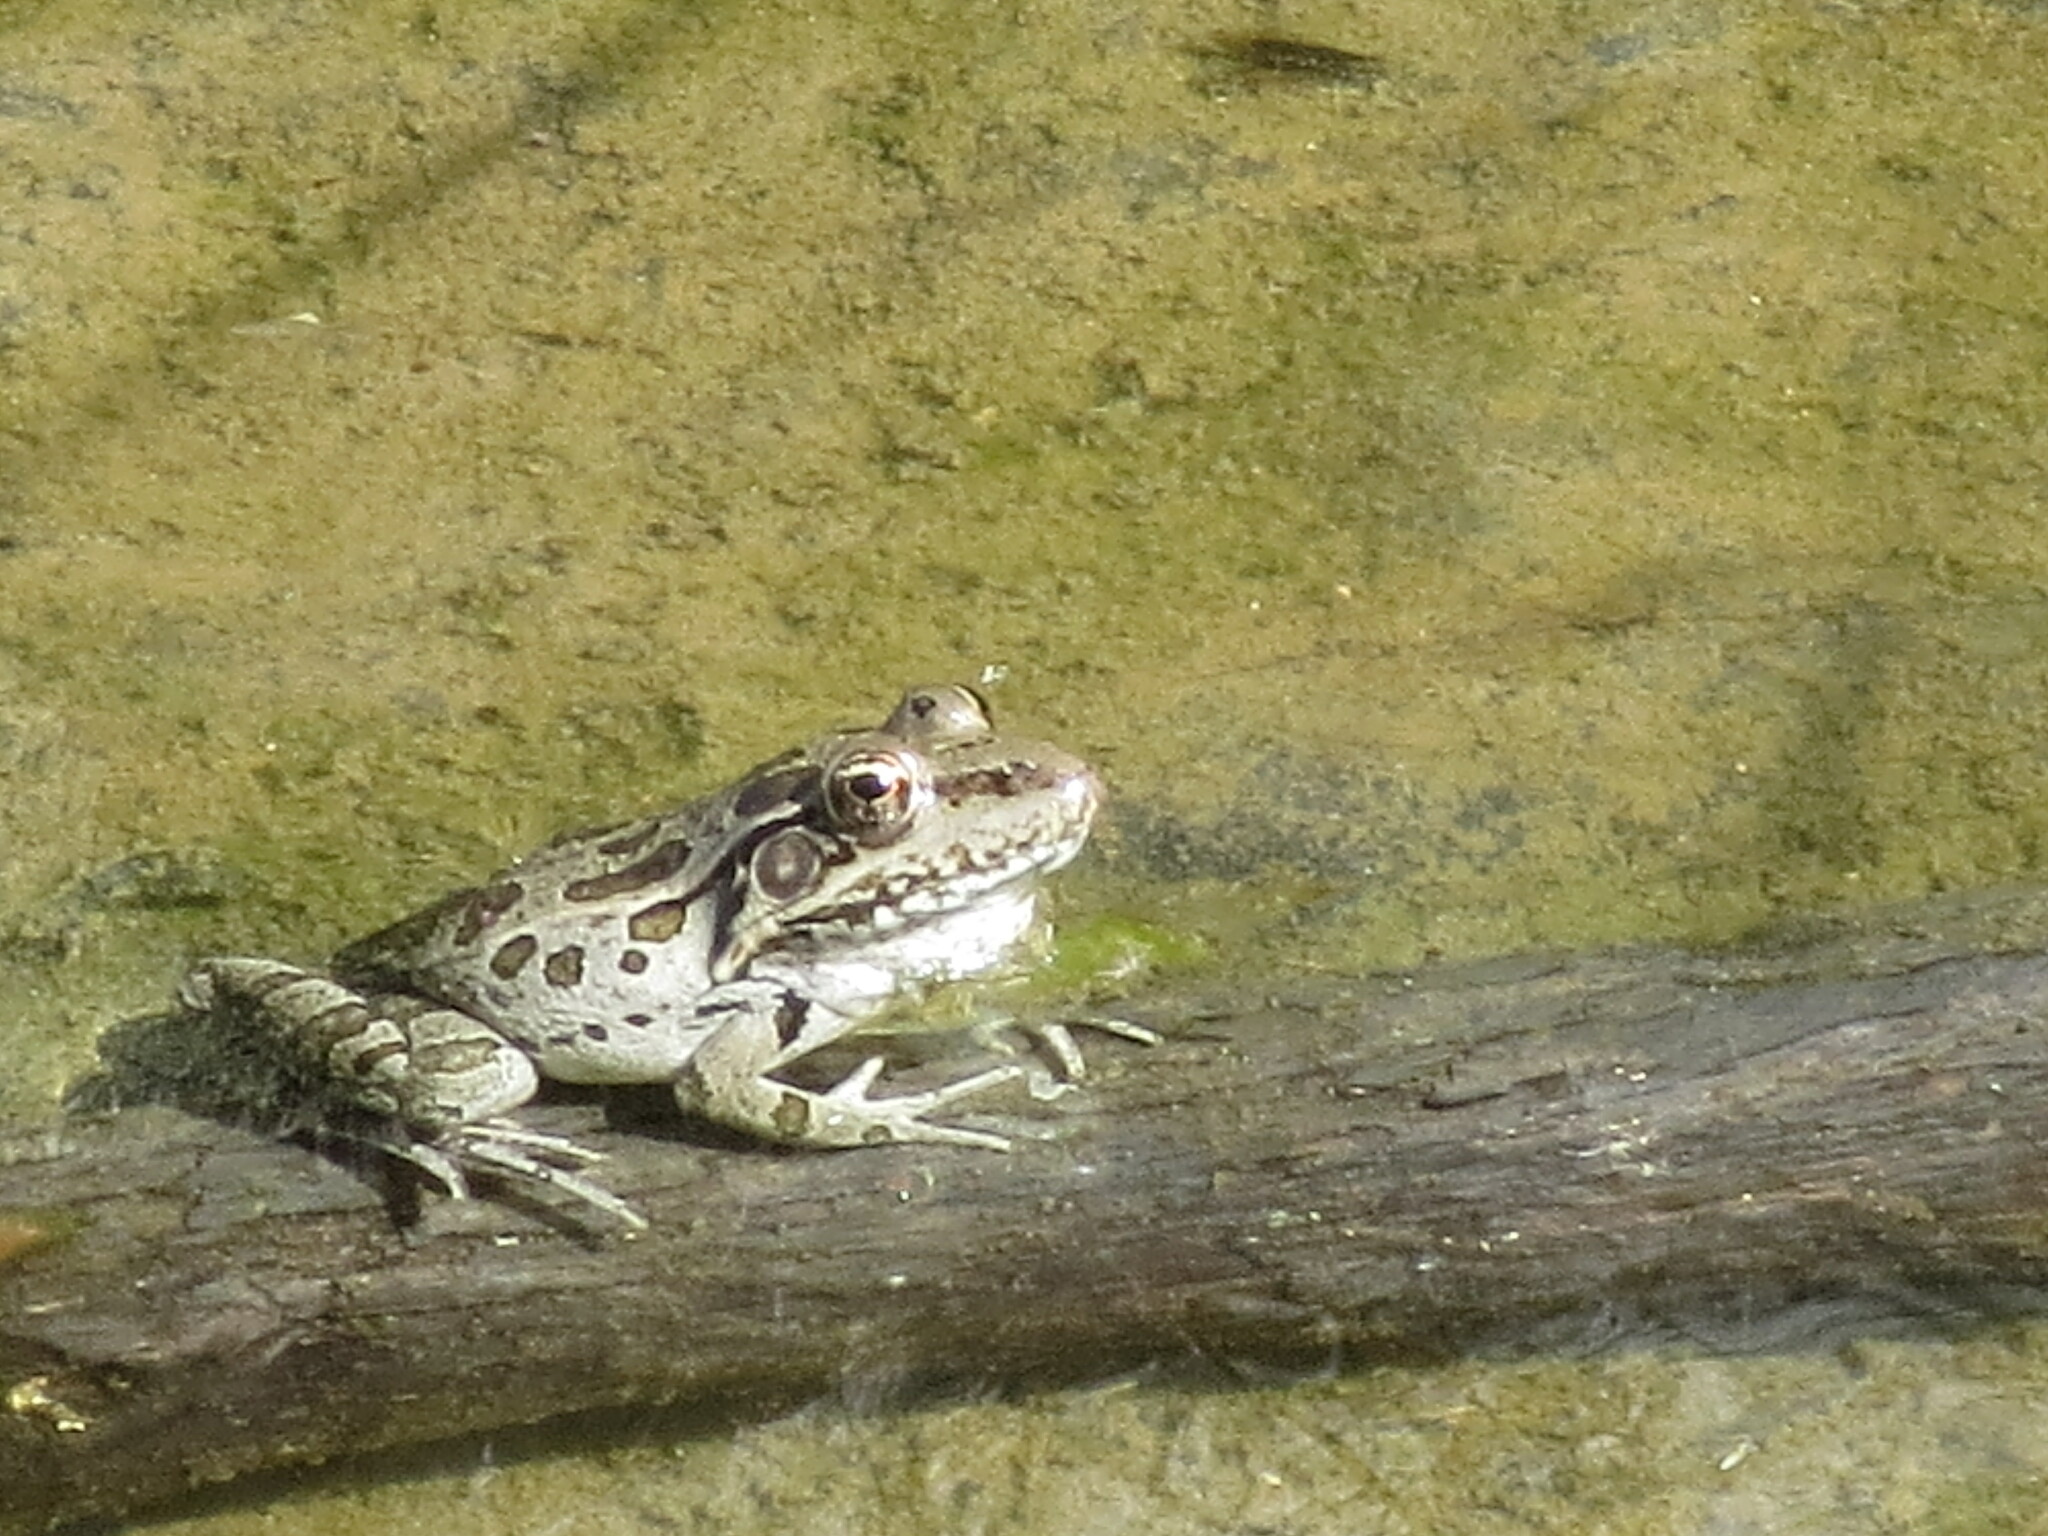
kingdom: Animalia
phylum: Chordata
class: Amphibia
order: Anura
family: Ranidae
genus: Lithobates
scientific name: Lithobates berlandieri
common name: Rio grande leopard frog
